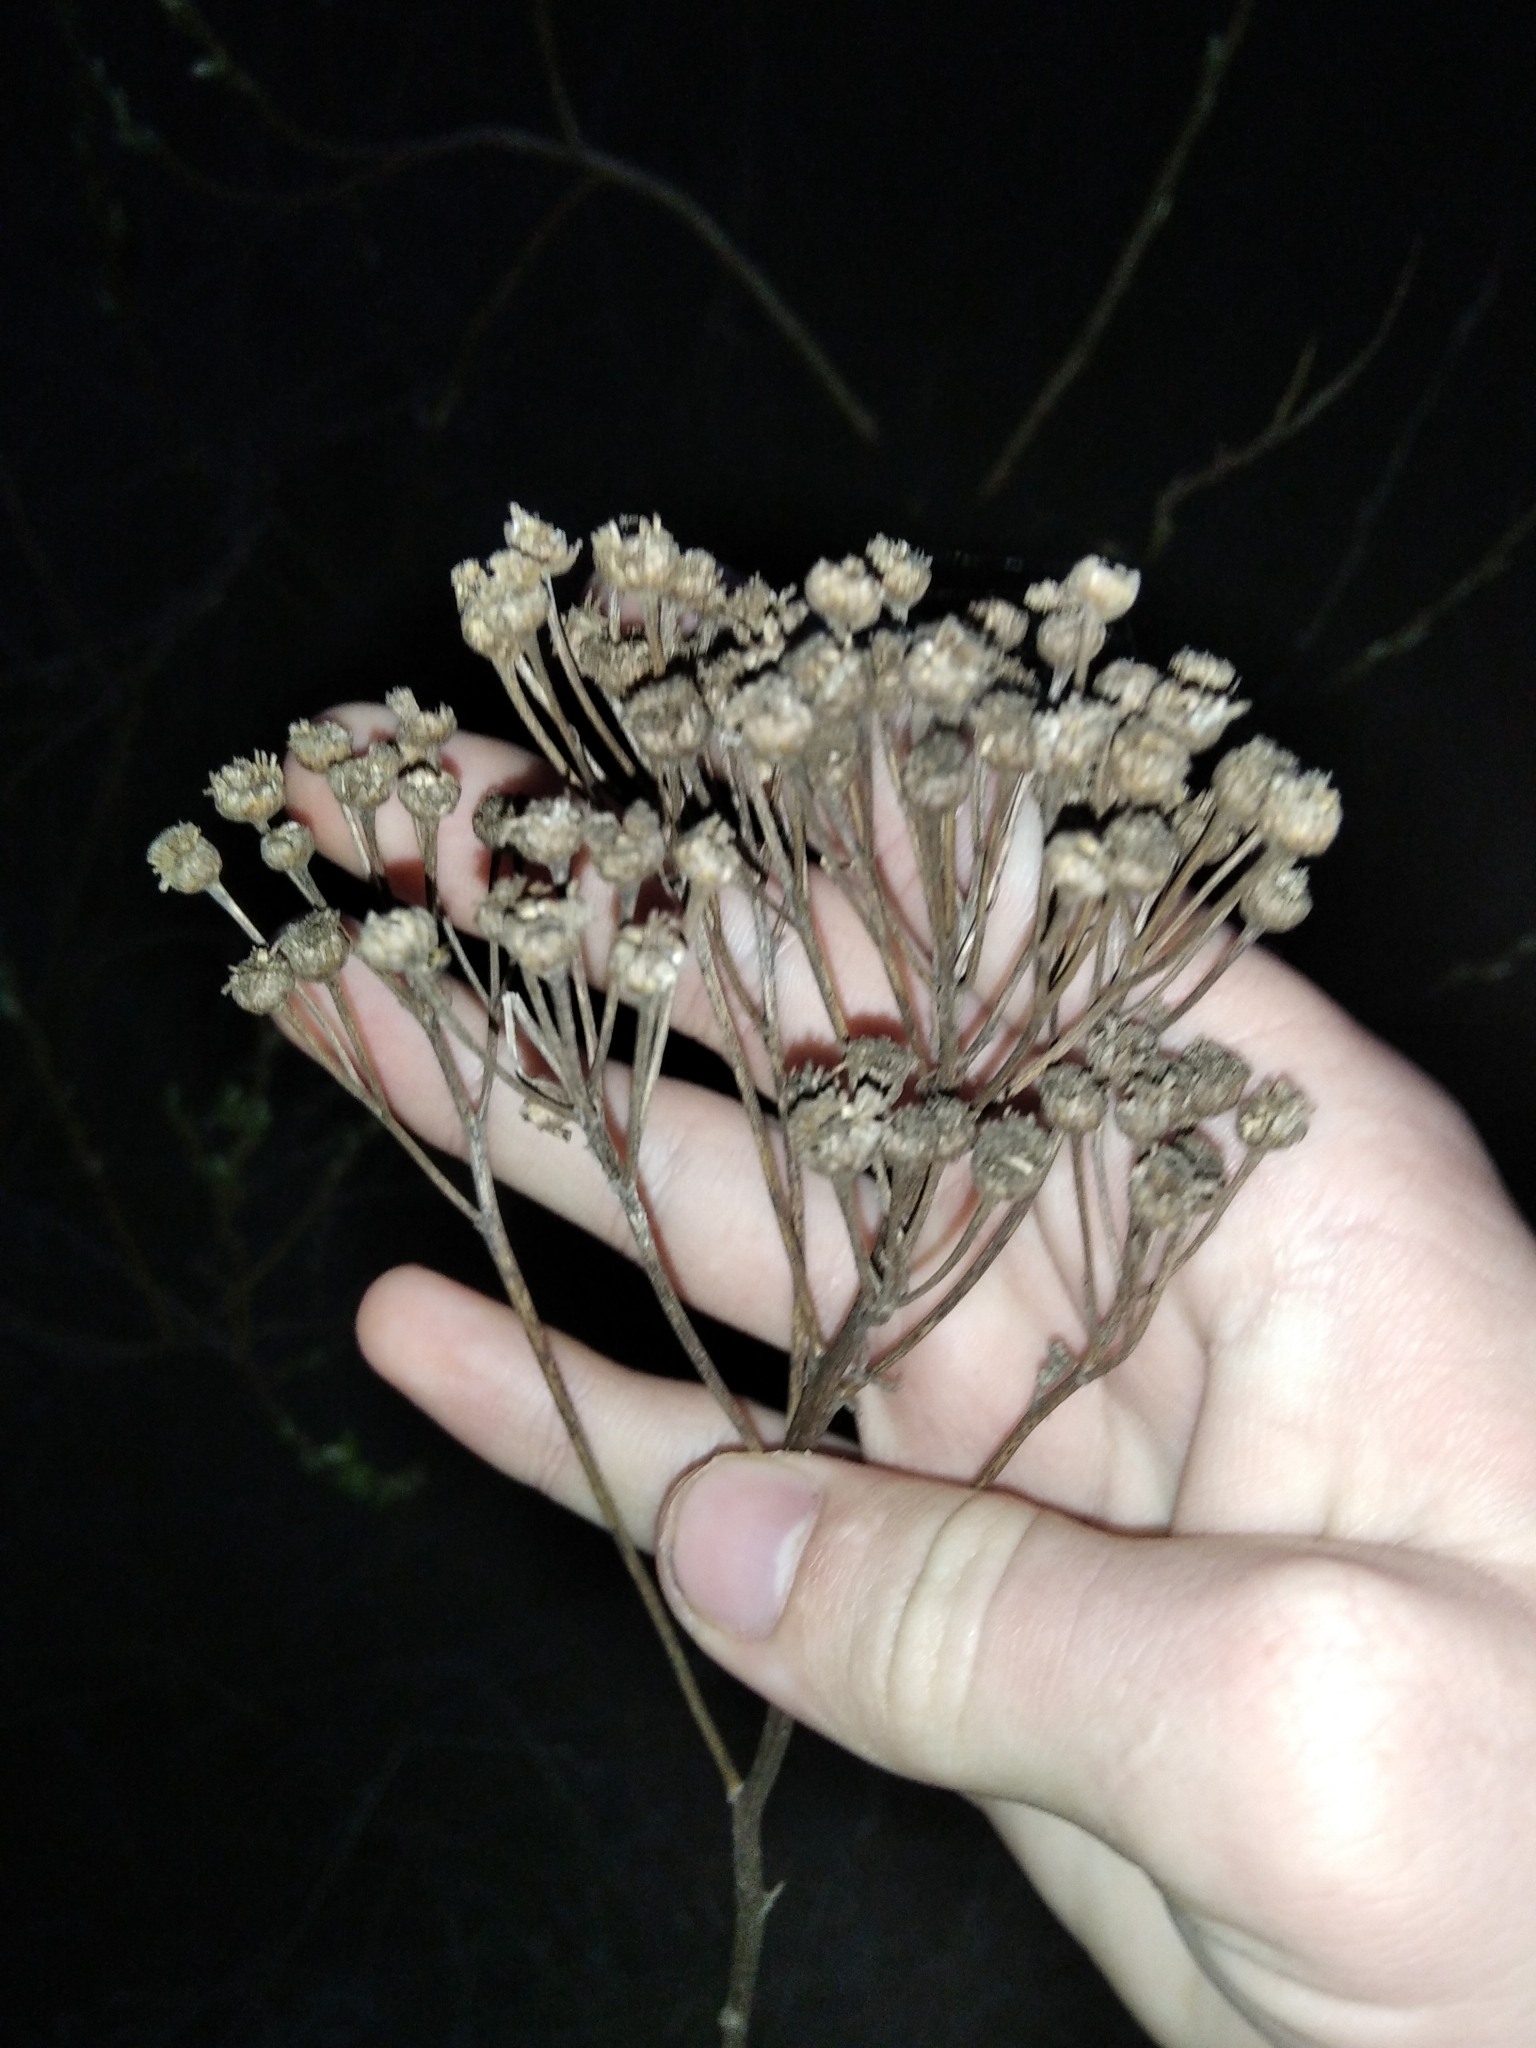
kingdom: Plantae
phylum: Tracheophyta
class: Magnoliopsida
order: Asterales
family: Asteraceae
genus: Tanacetum
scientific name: Tanacetum vulgare
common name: Common tansy
